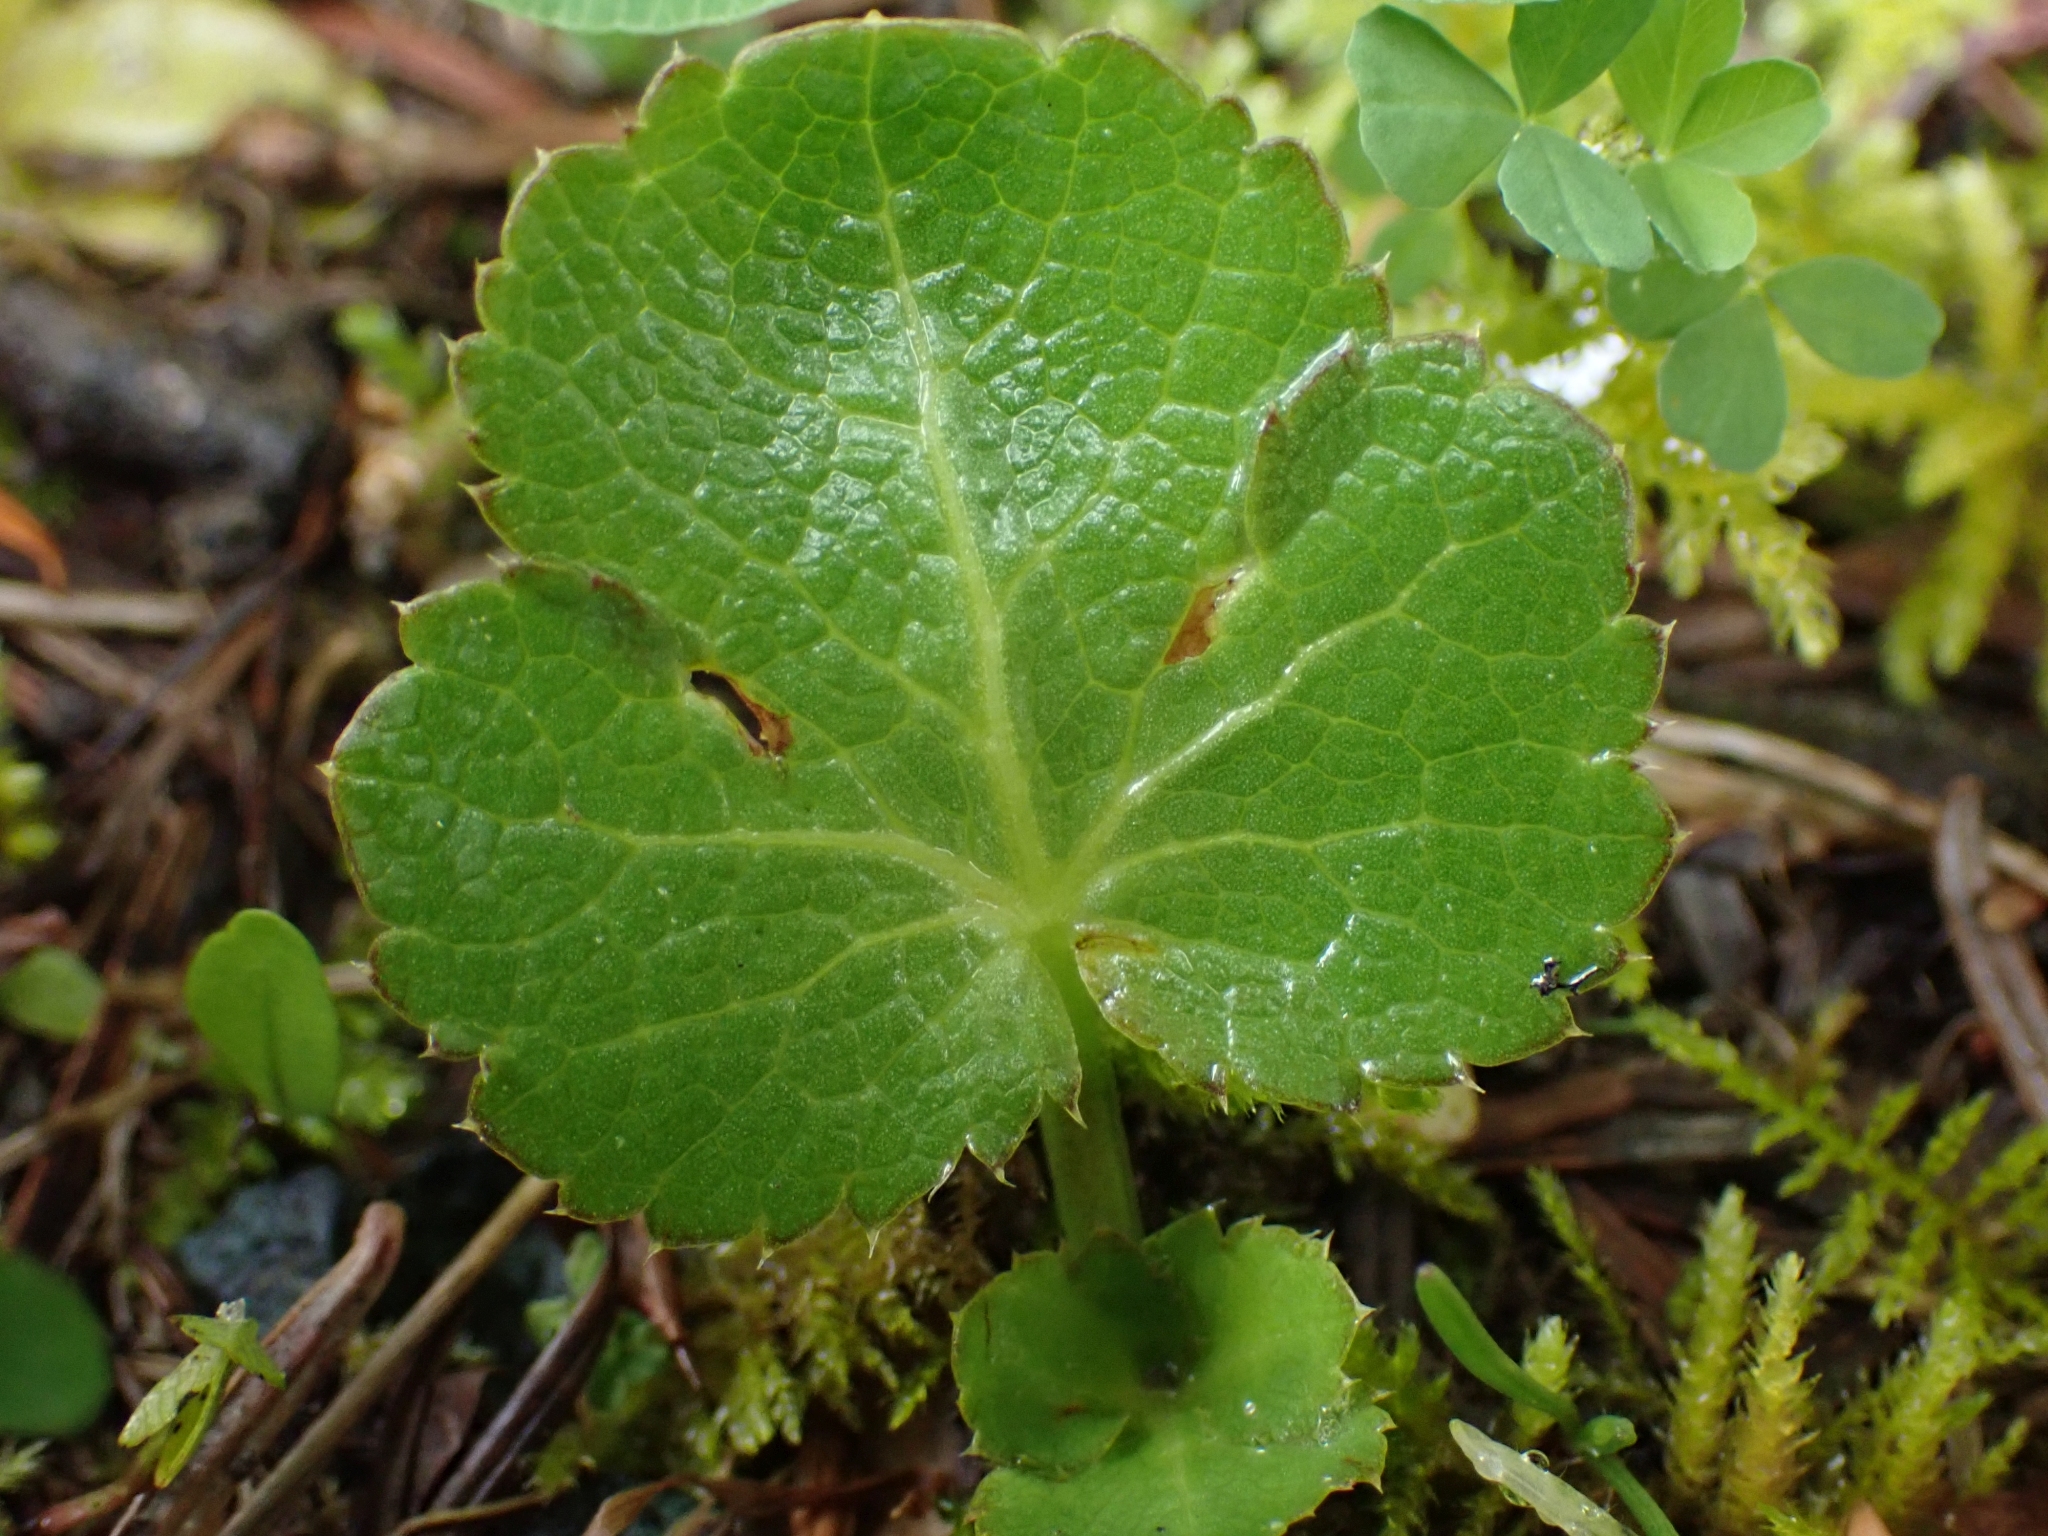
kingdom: Plantae
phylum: Tracheophyta
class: Magnoliopsida
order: Apiales
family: Apiaceae
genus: Sanicula
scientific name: Sanicula crassicaulis
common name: Western snakeroot
